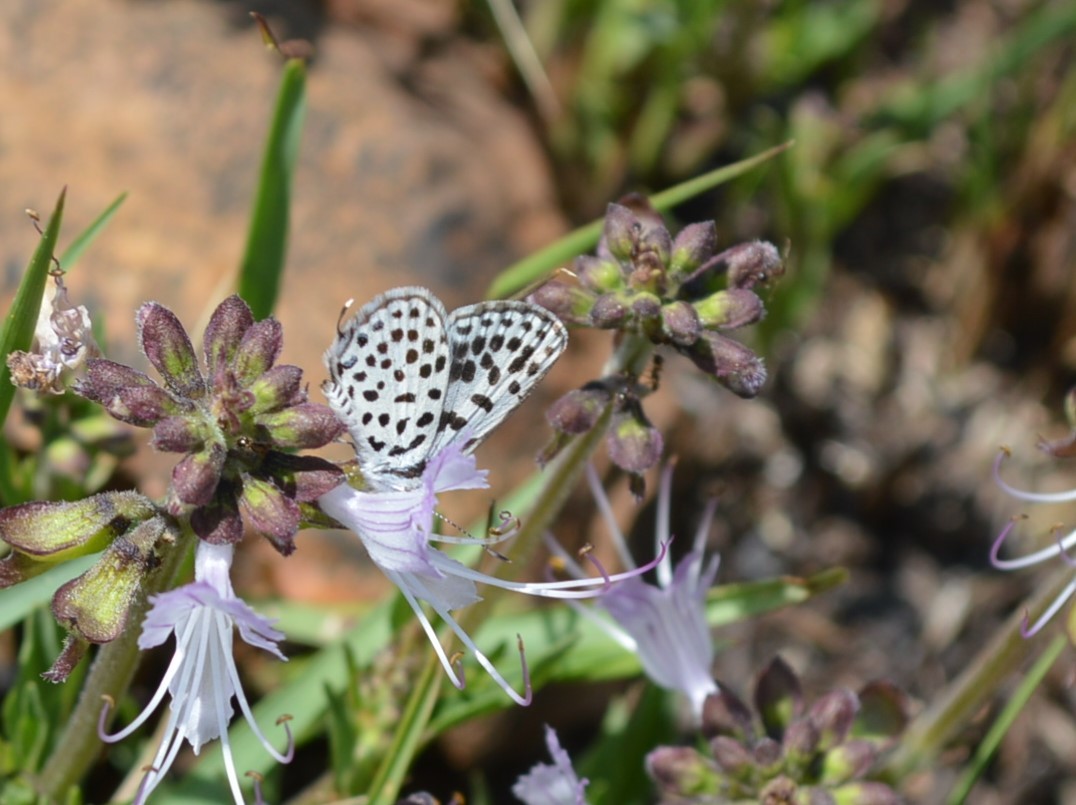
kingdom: Animalia
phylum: Arthropoda
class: Insecta
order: Lepidoptera
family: Lycaenidae
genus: Tarucus
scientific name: Tarucus sybaris
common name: Dotted blue
